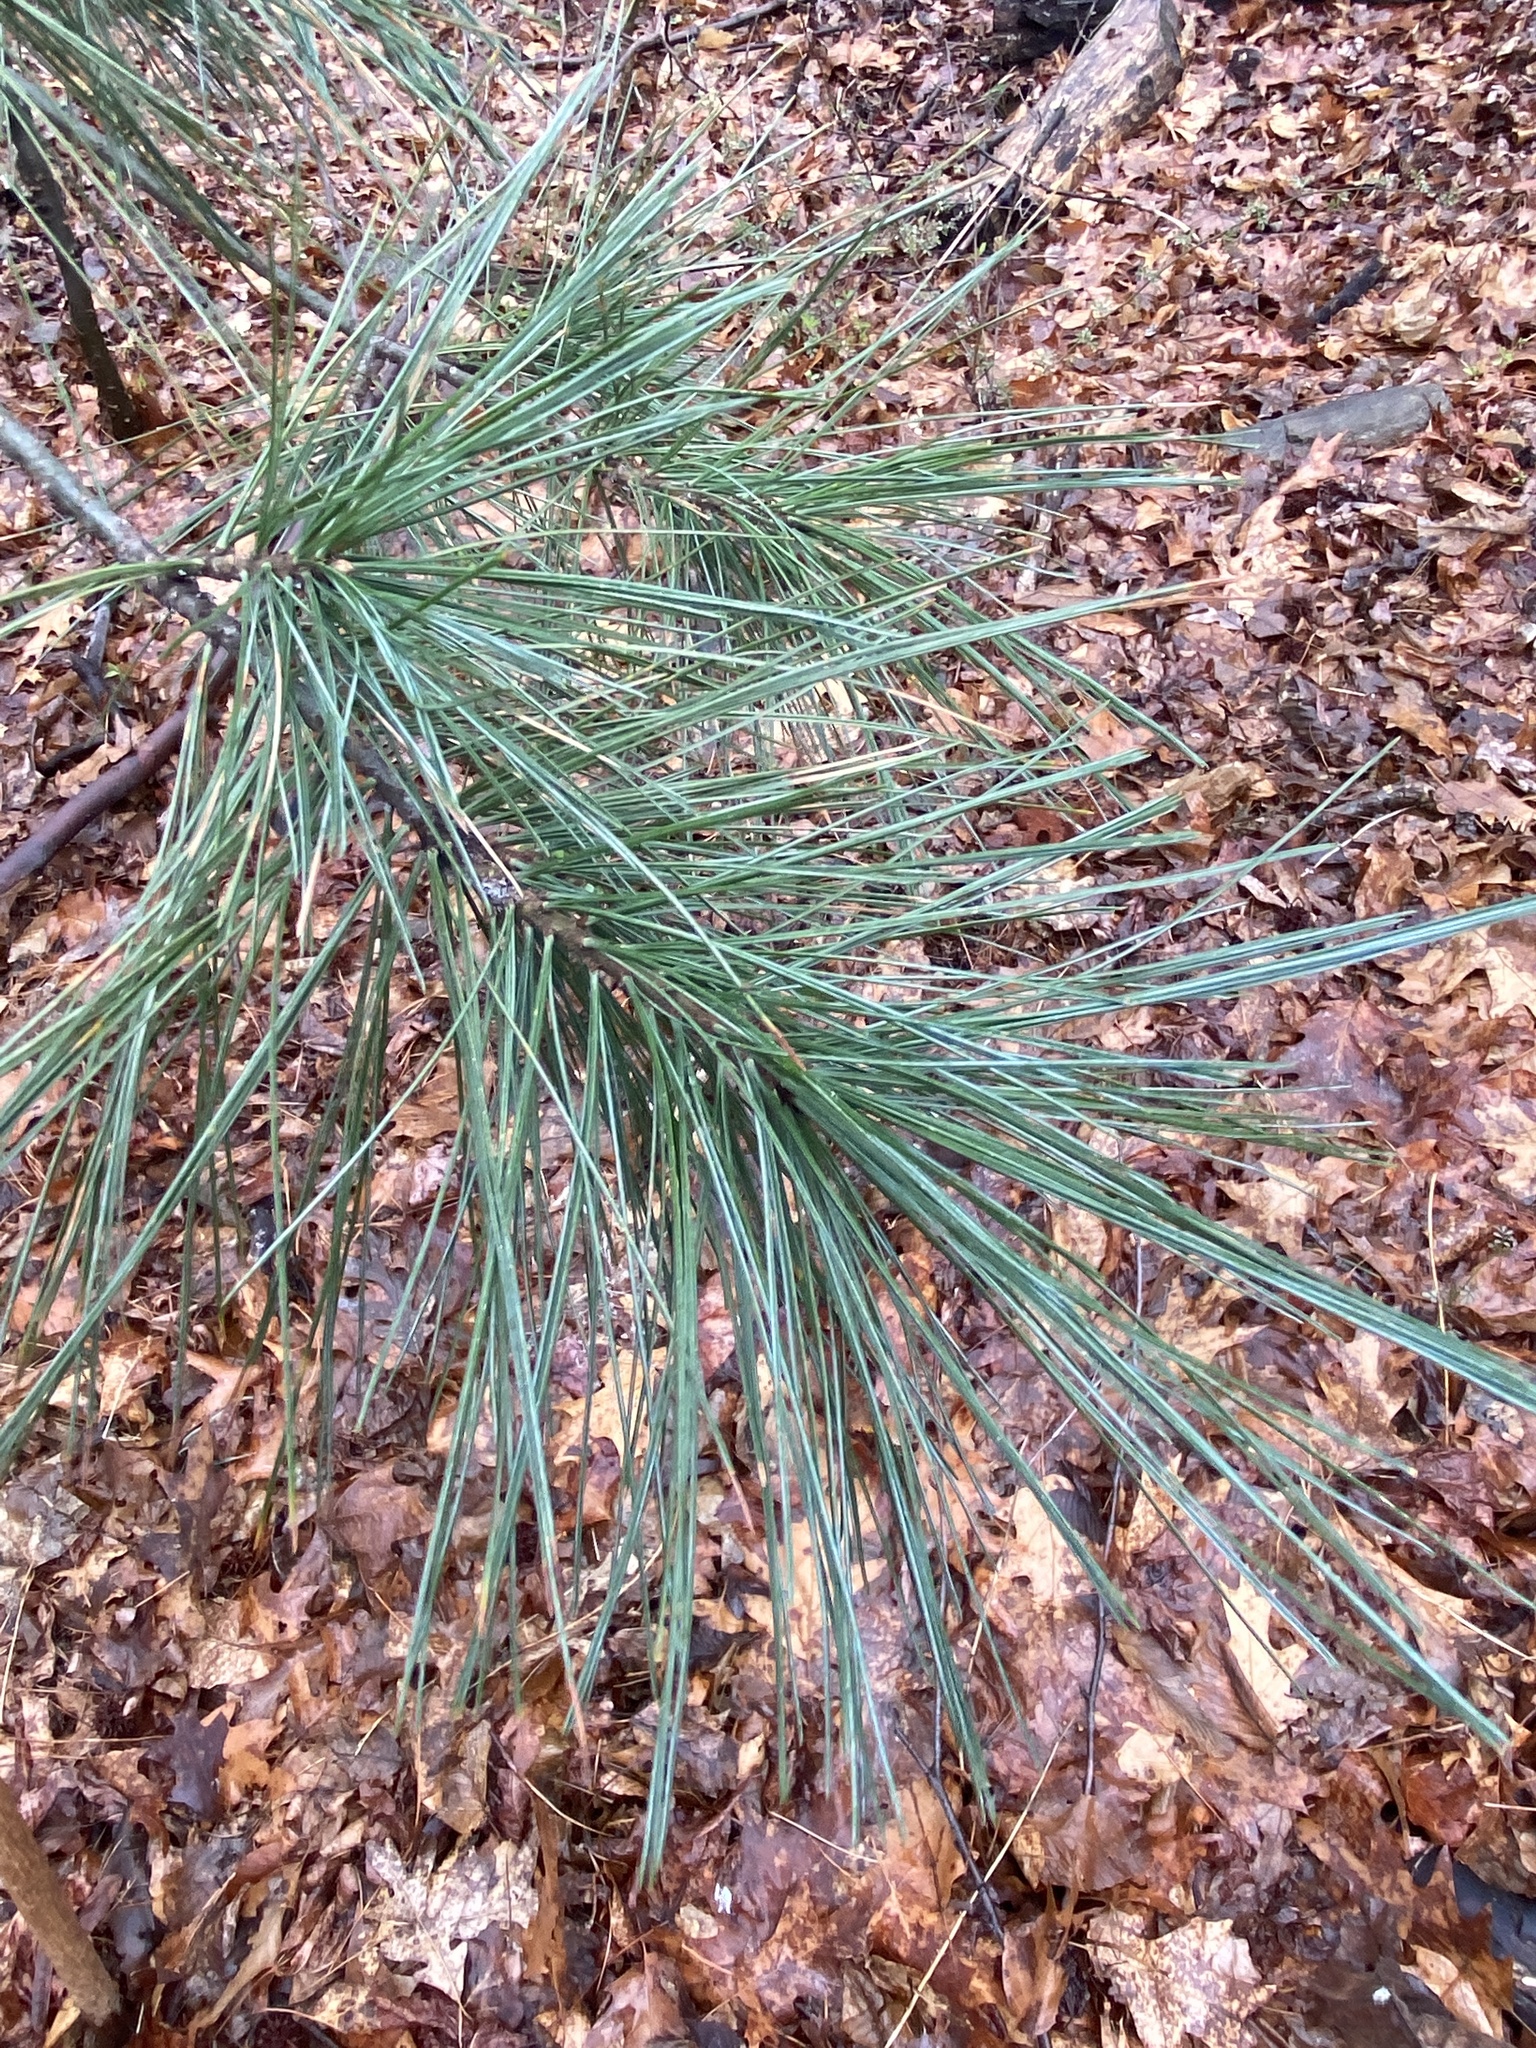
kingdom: Plantae
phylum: Tracheophyta
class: Pinopsida
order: Pinales
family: Pinaceae
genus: Pinus
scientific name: Pinus strobus
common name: Weymouth pine
